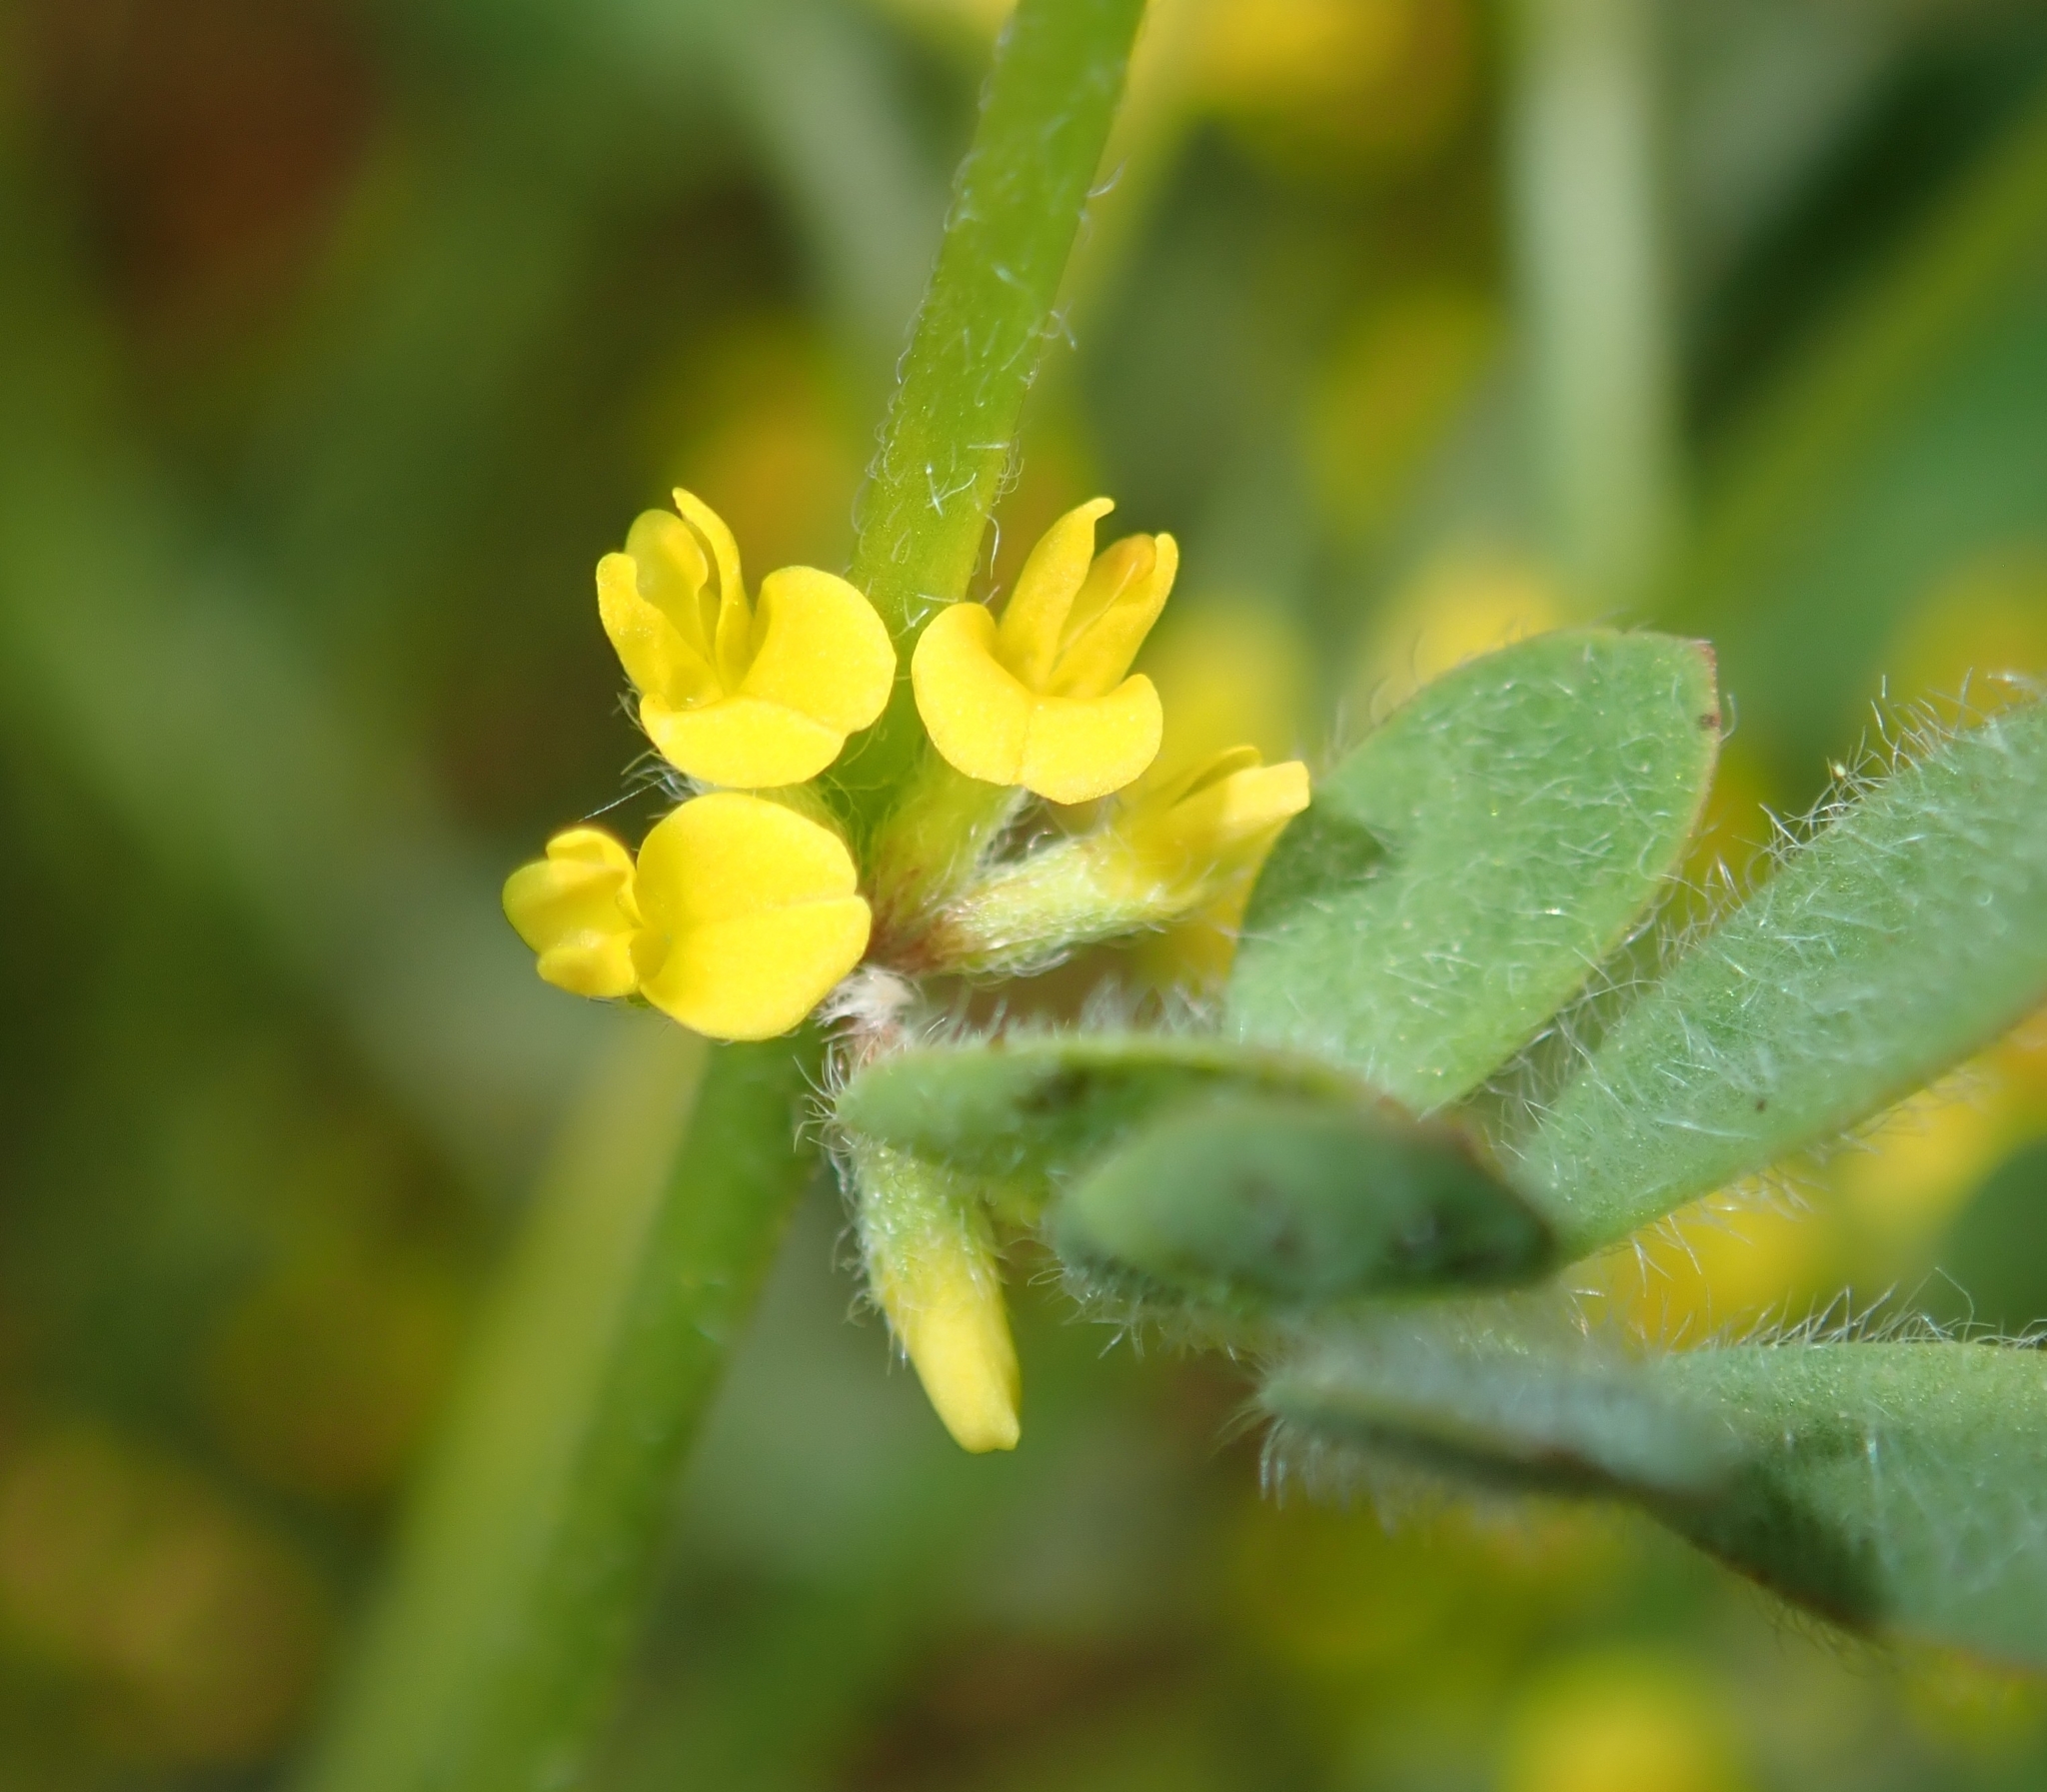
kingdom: Plantae
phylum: Tracheophyta
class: Magnoliopsida
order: Fabales
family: Fabaceae
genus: Acmispon
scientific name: Acmispon micranthus
